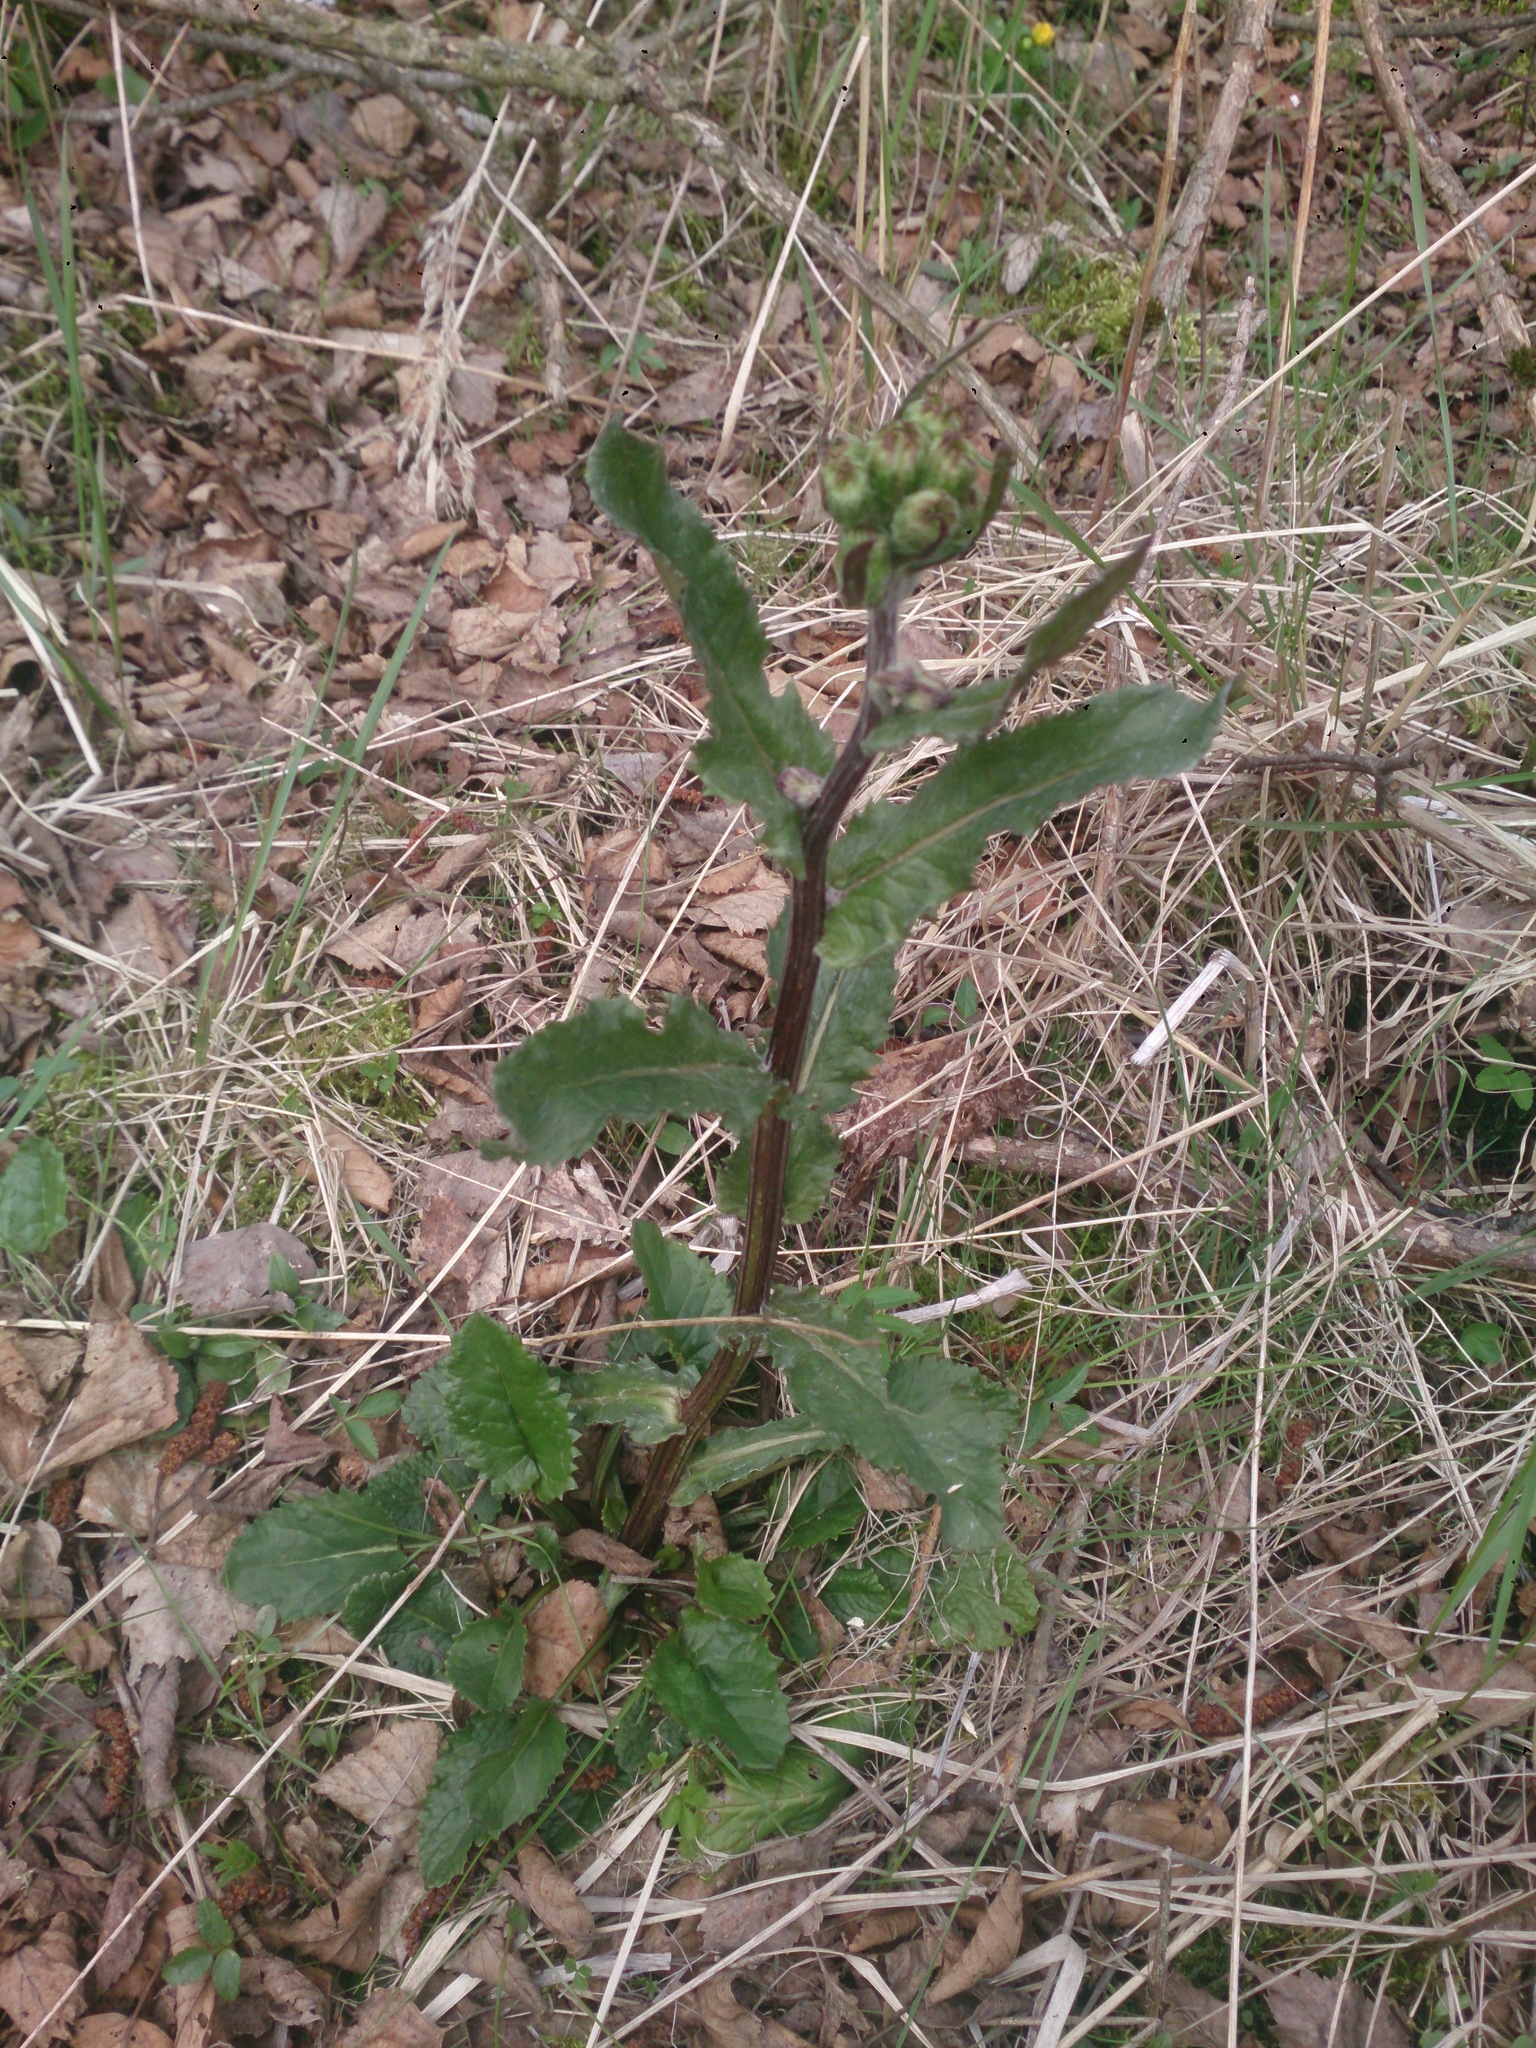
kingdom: Plantae
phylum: Tracheophyta
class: Magnoliopsida
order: Asterales
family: Asteraceae
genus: Tephroseris
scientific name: Tephroseris crispa
